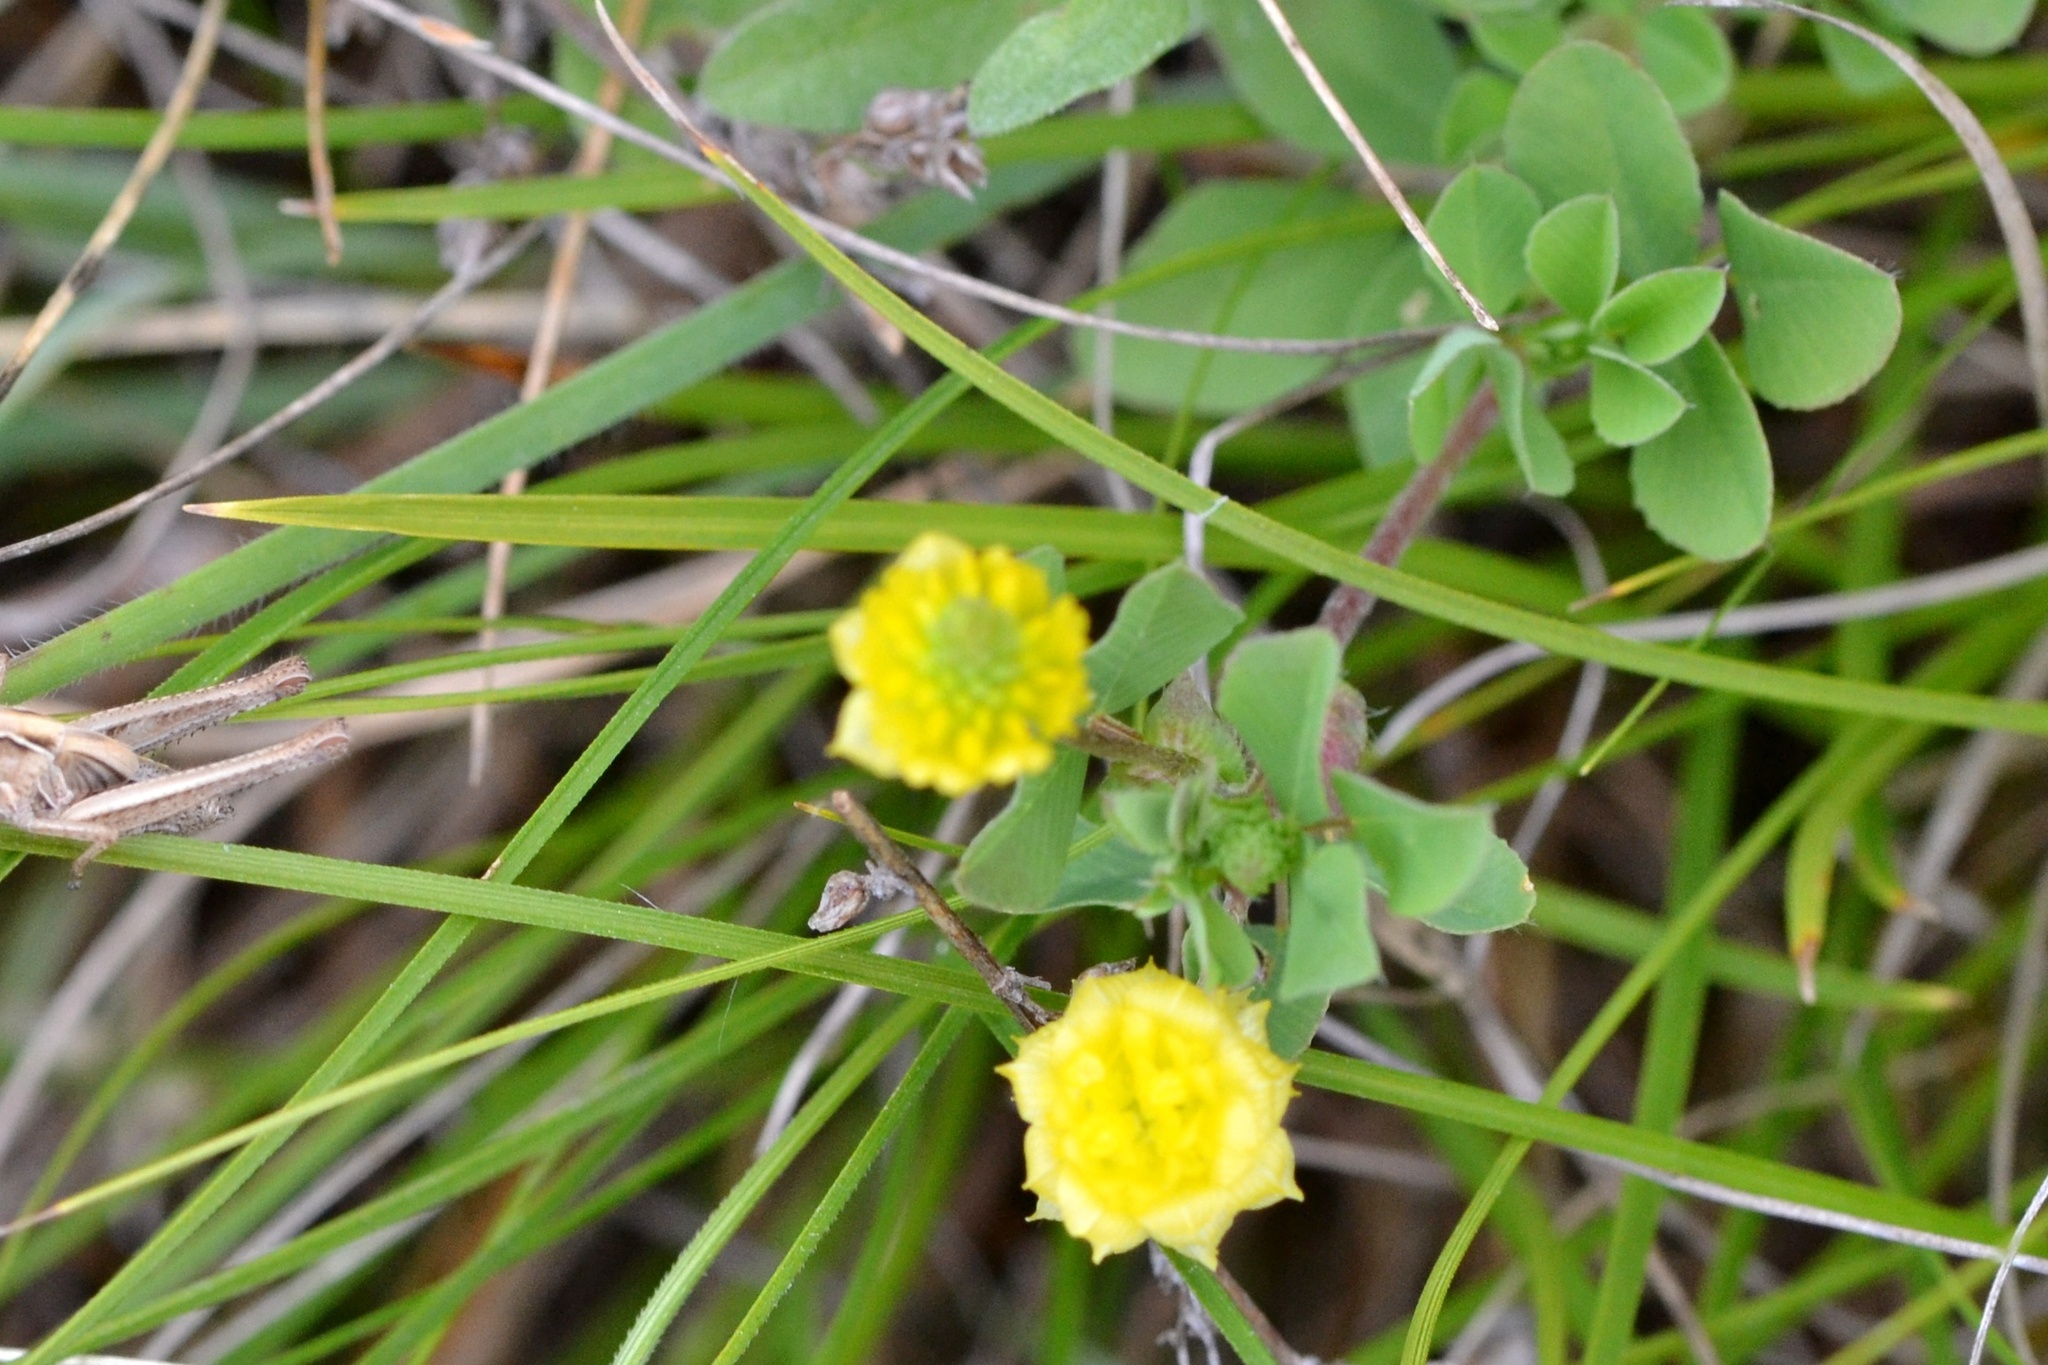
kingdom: Plantae
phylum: Tracheophyta
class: Magnoliopsida
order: Fabales
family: Fabaceae
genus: Trifolium
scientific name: Trifolium campestre
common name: Field clover
